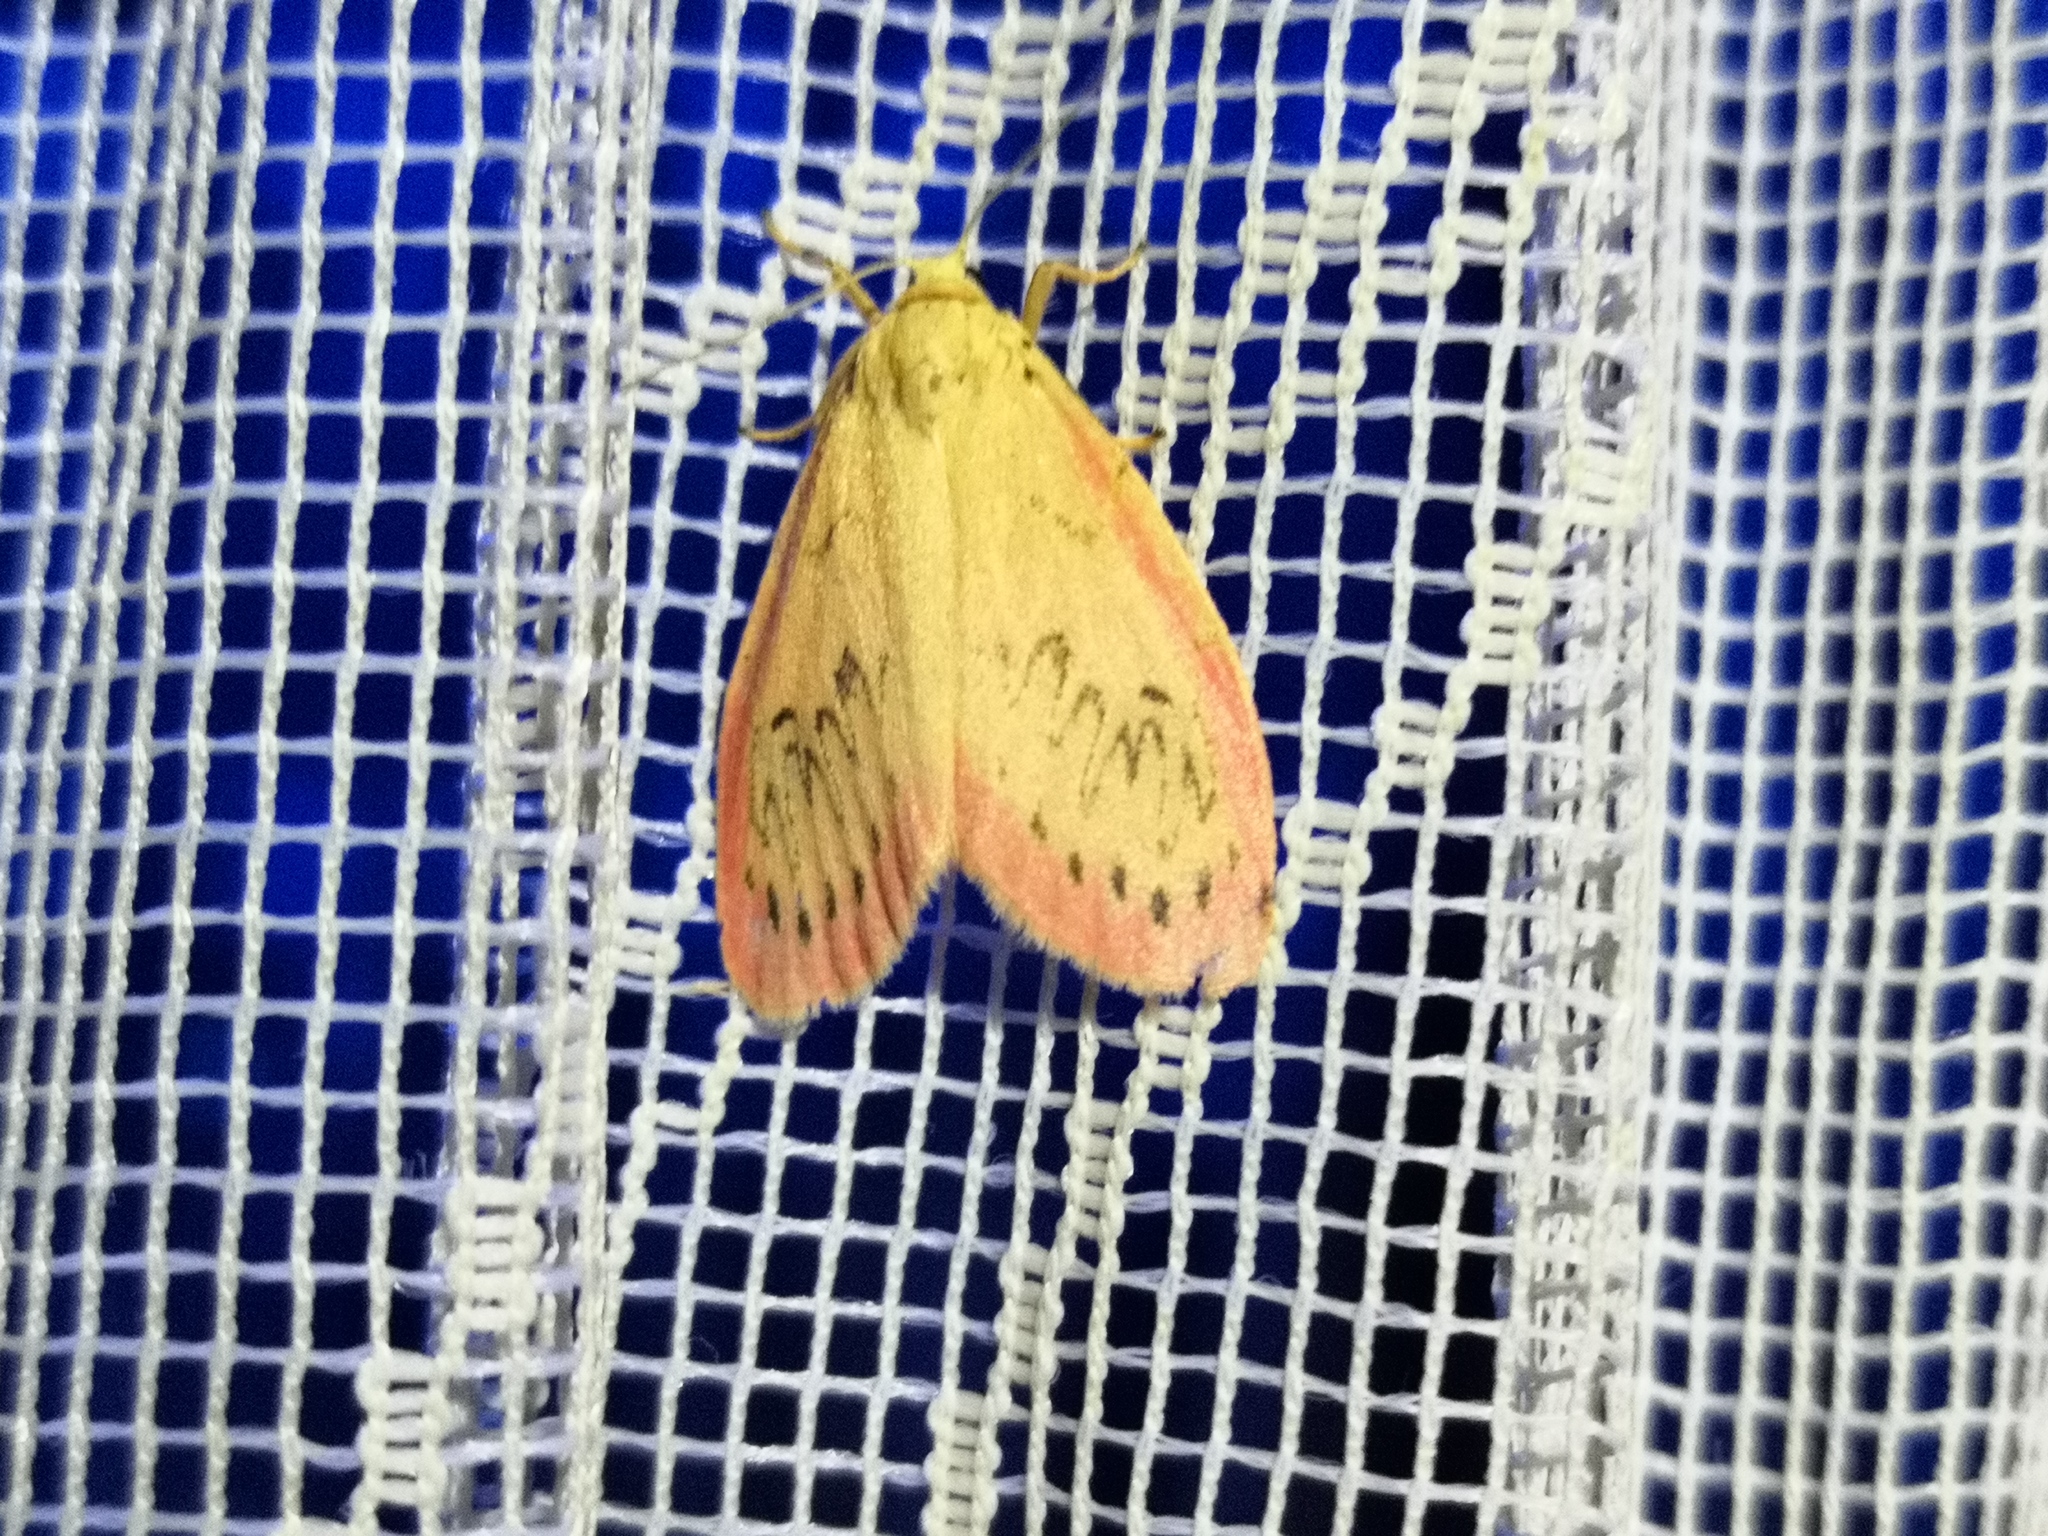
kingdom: Animalia
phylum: Arthropoda
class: Insecta
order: Lepidoptera
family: Erebidae
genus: Miltochrista
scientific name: Miltochrista miniata
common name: Rosy footman
